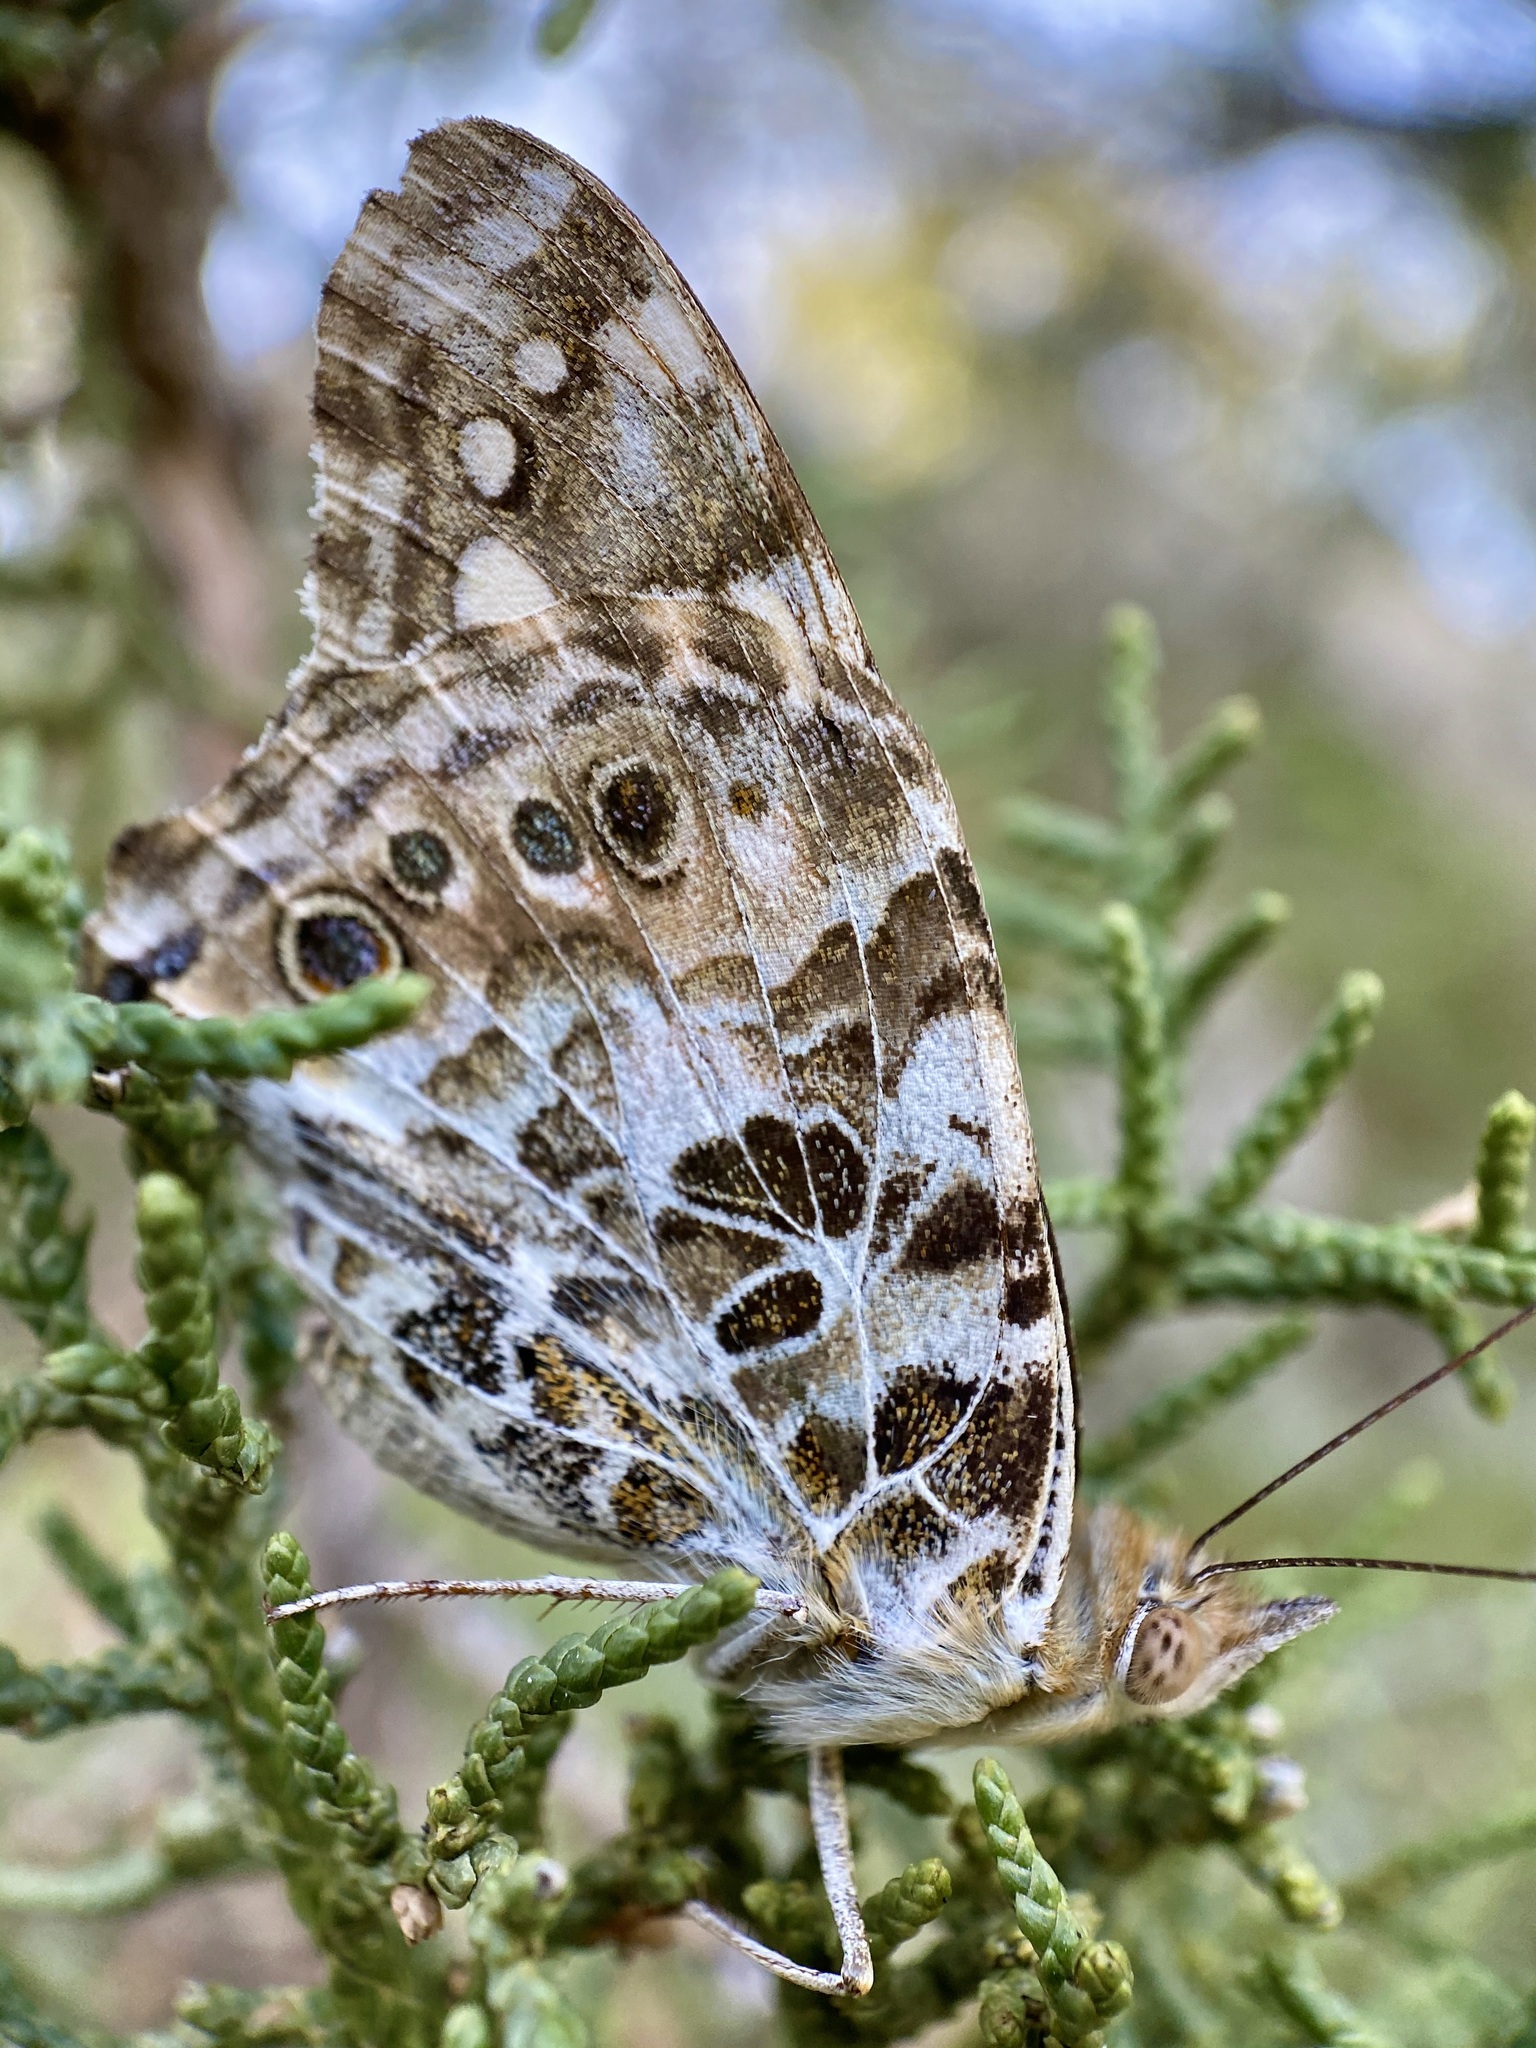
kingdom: Animalia
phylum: Arthropoda
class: Insecta
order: Lepidoptera
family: Nymphalidae
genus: Vanessa
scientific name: Vanessa cardui
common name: Painted lady
